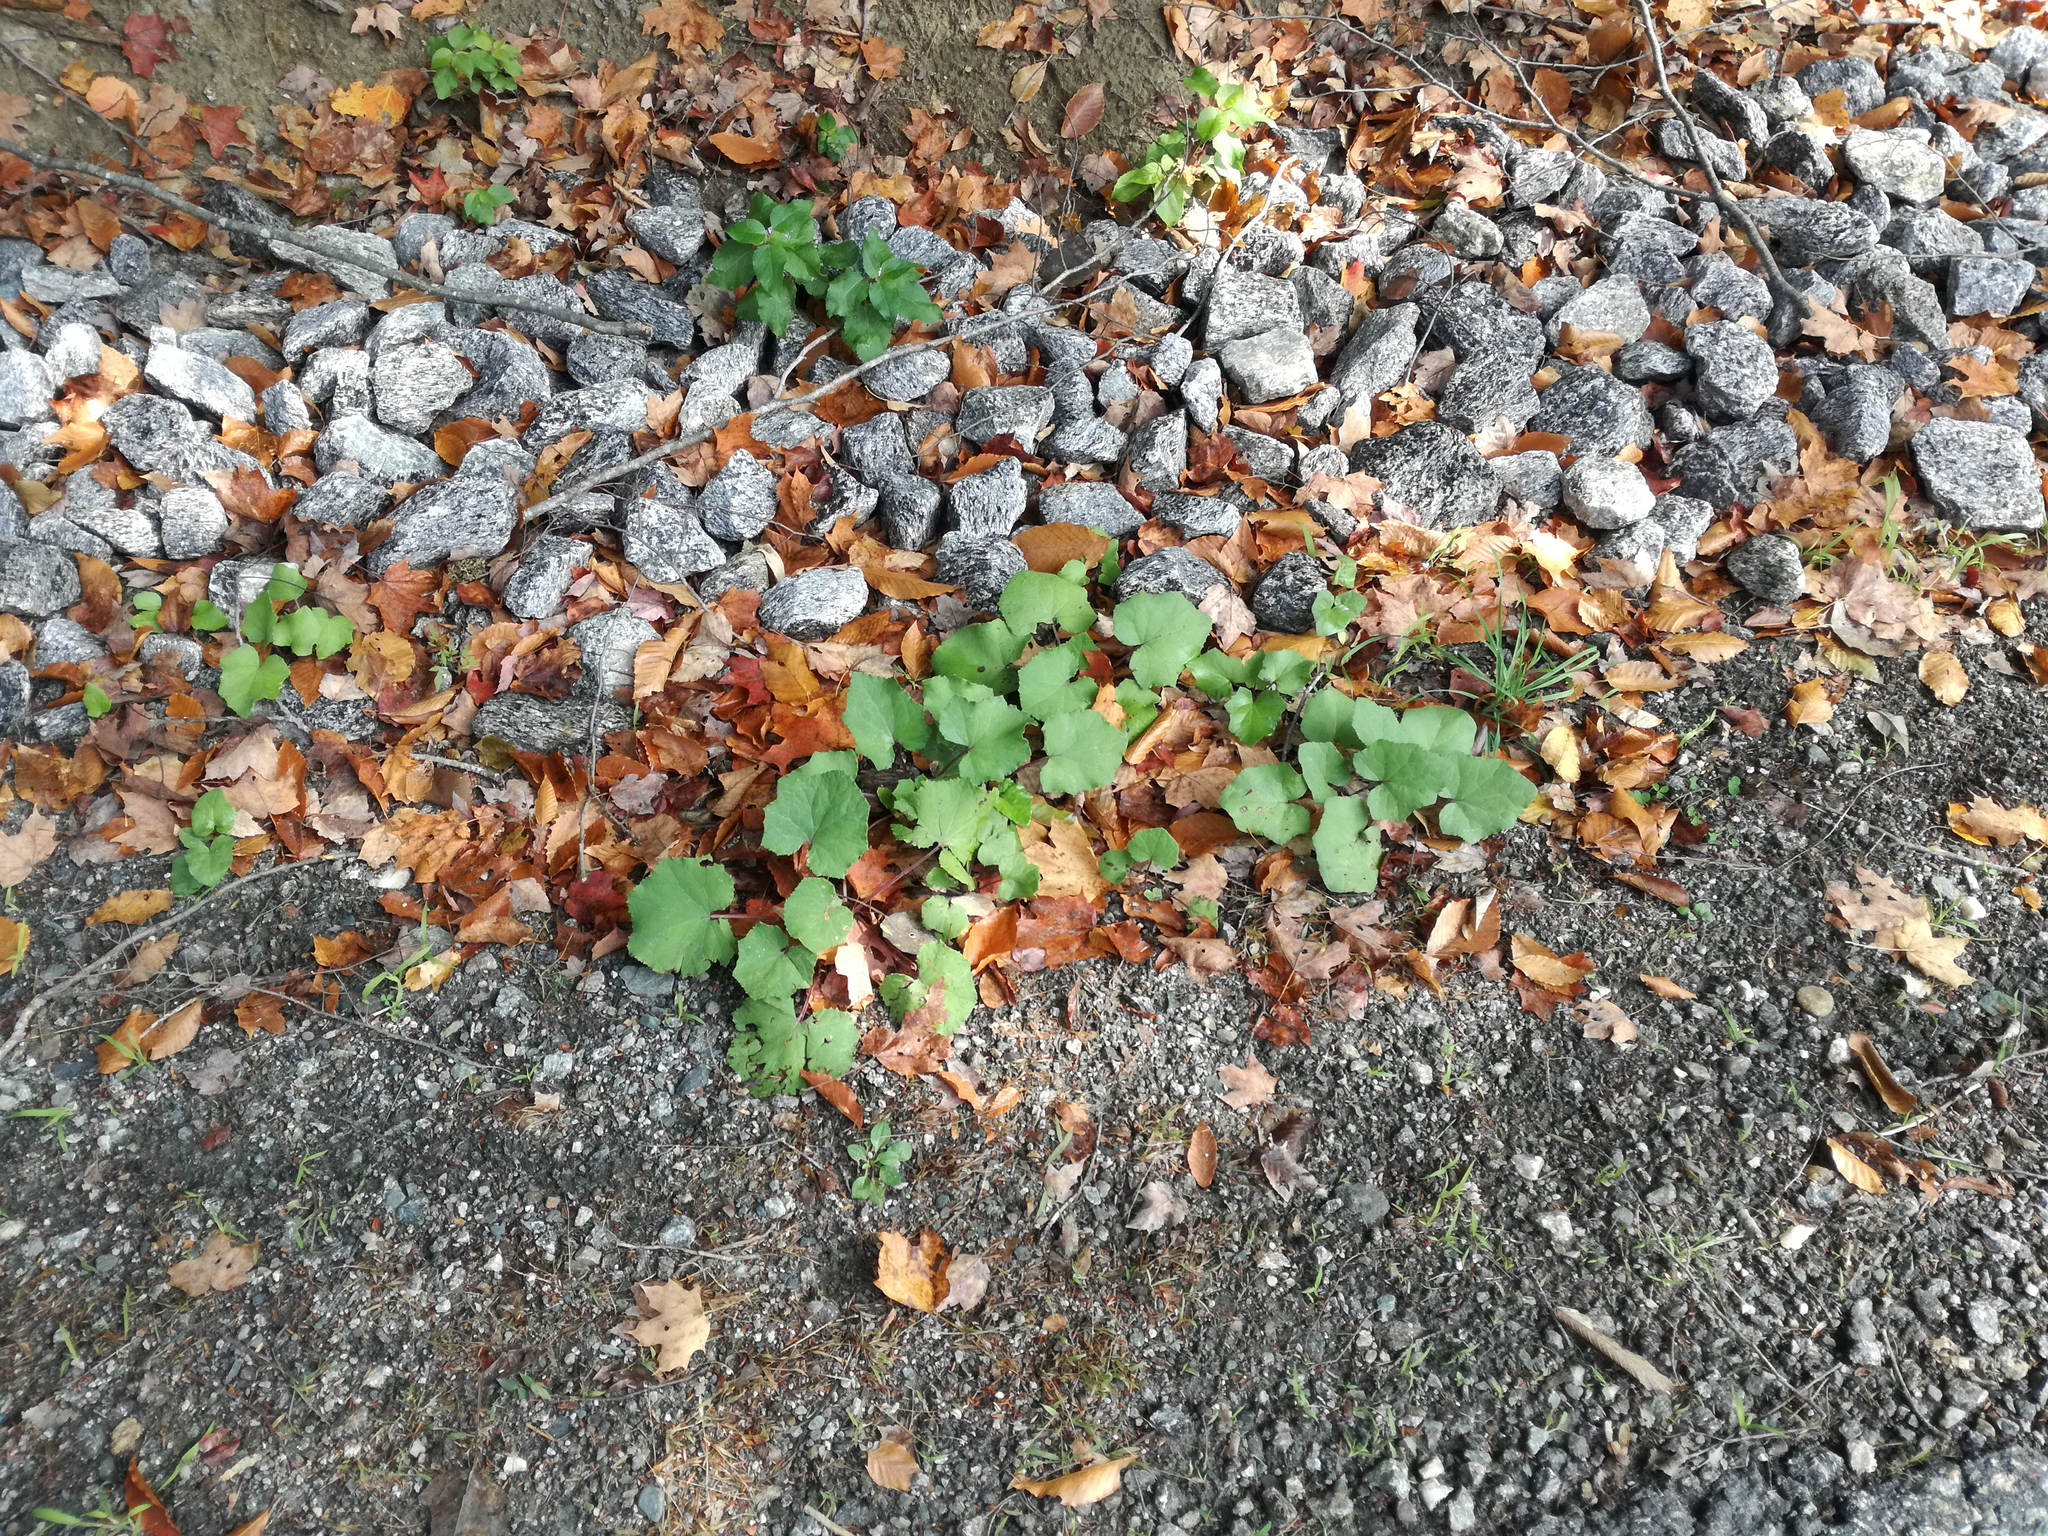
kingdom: Plantae
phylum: Tracheophyta
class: Magnoliopsida
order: Asterales
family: Asteraceae
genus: Tussilago
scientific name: Tussilago farfara
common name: Coltsfoot
